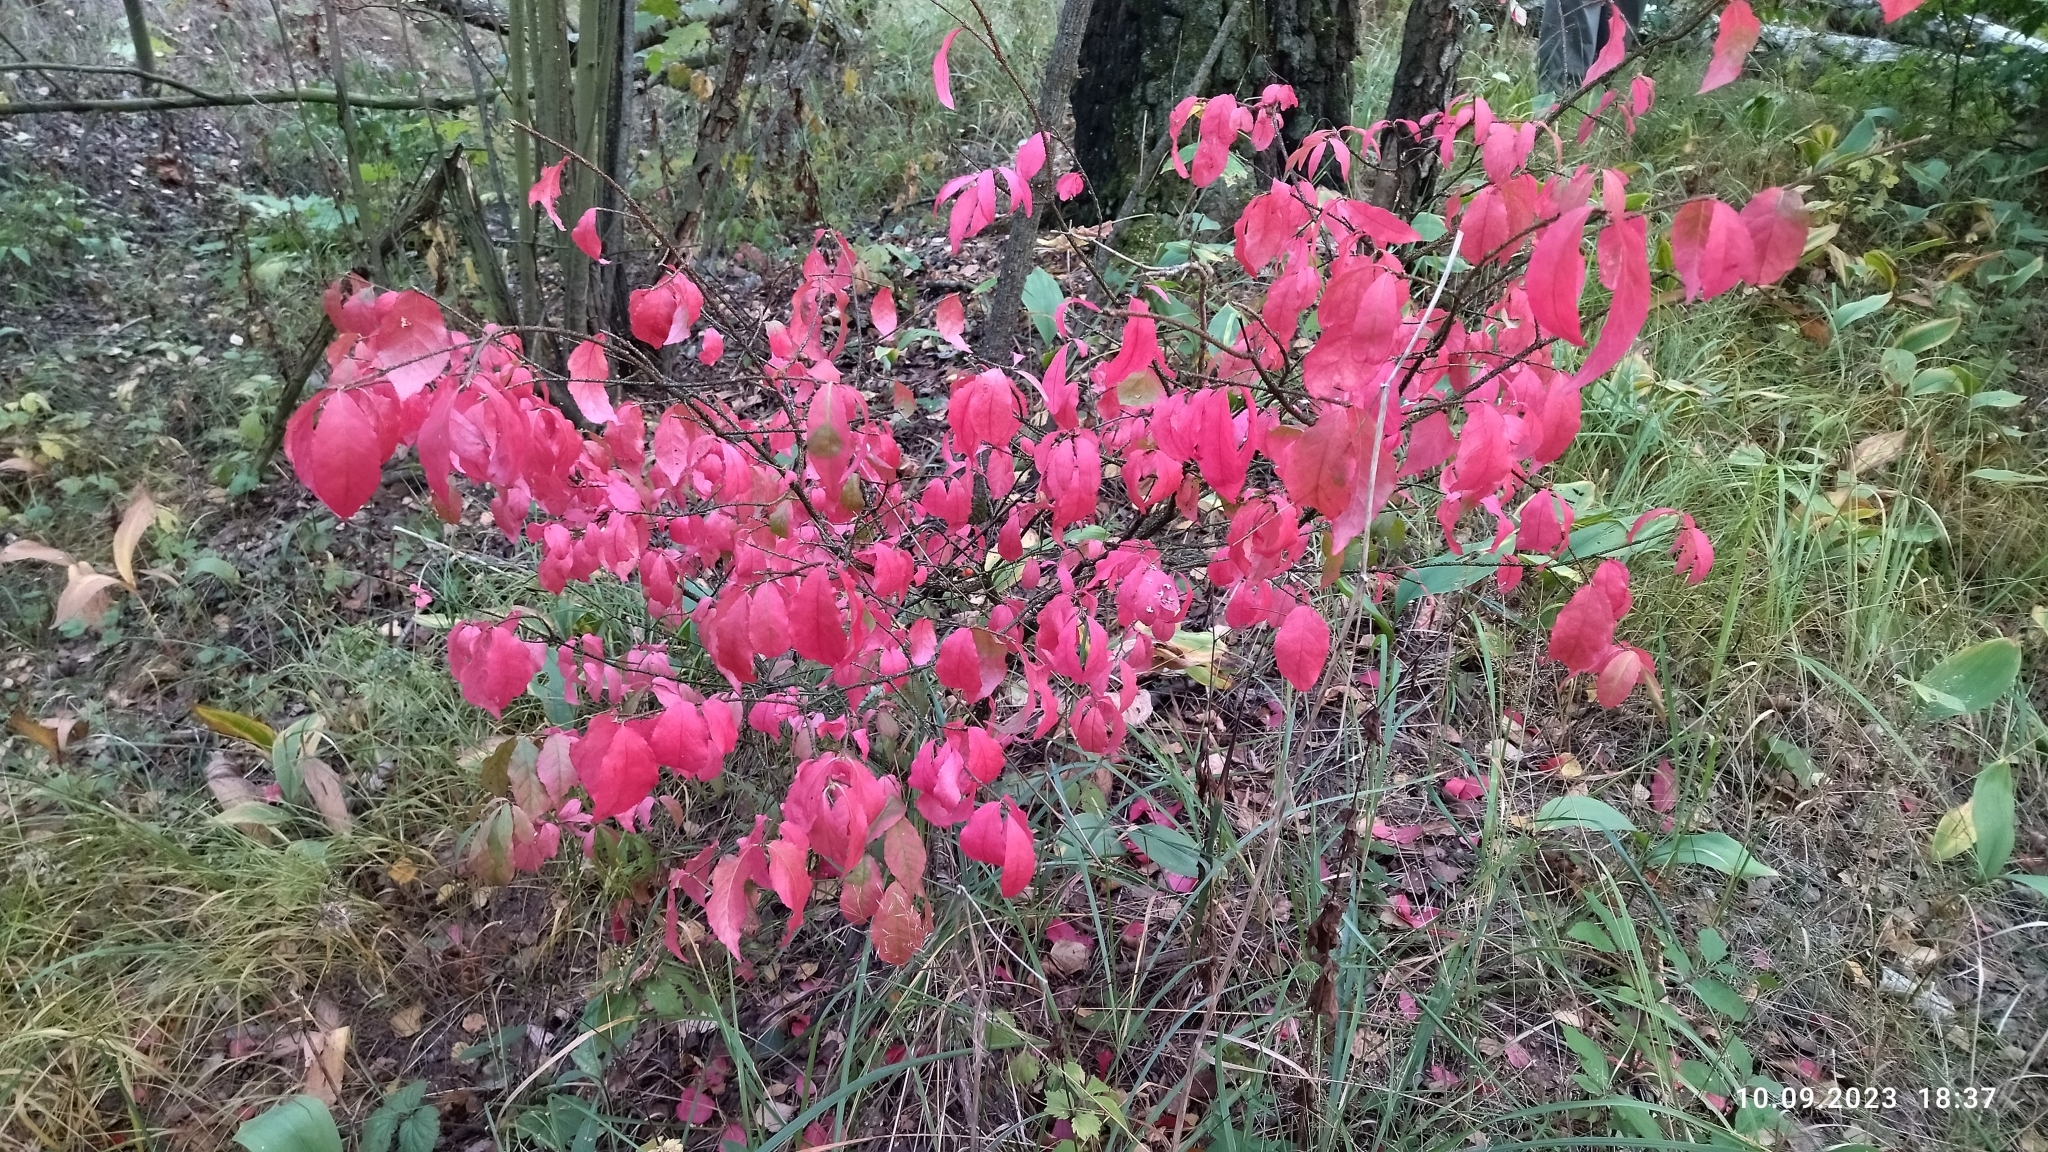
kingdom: Plantae
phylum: Tracheophyta
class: Magnoliopsida
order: Celastrales
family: Celastraceae
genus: Euonymus
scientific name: Euonymus verrucosus
